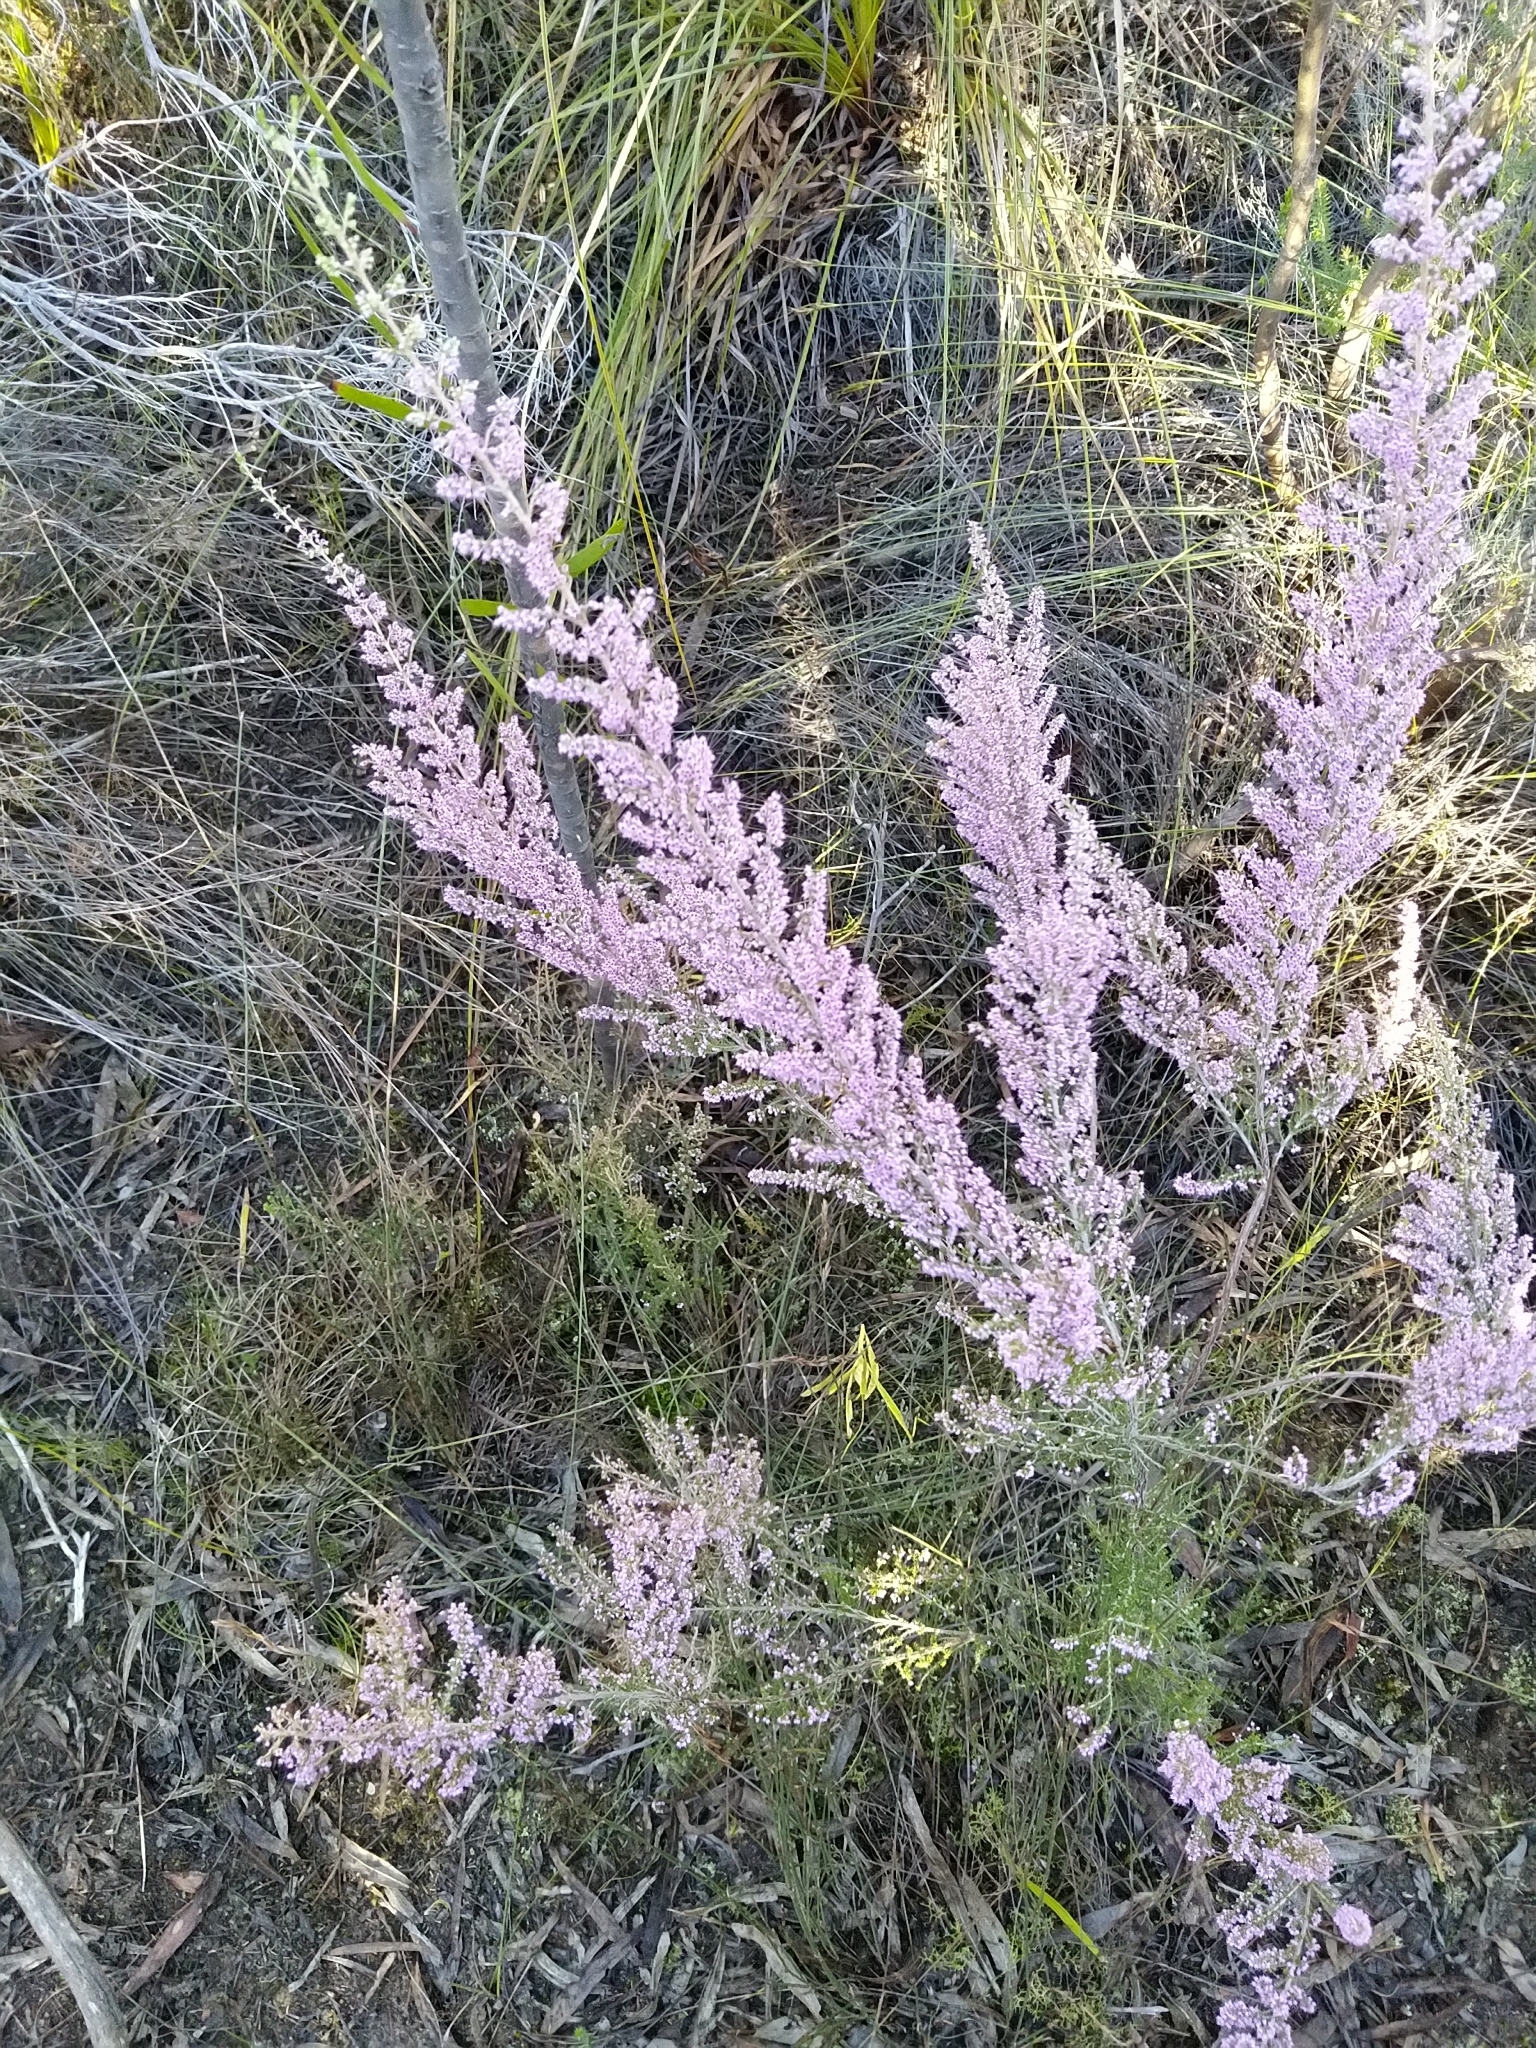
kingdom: Plantae
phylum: Tracheophyta
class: Magnoliopsida
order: Ericales
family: Ericaceae
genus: Erica
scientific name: Erica sparsa
